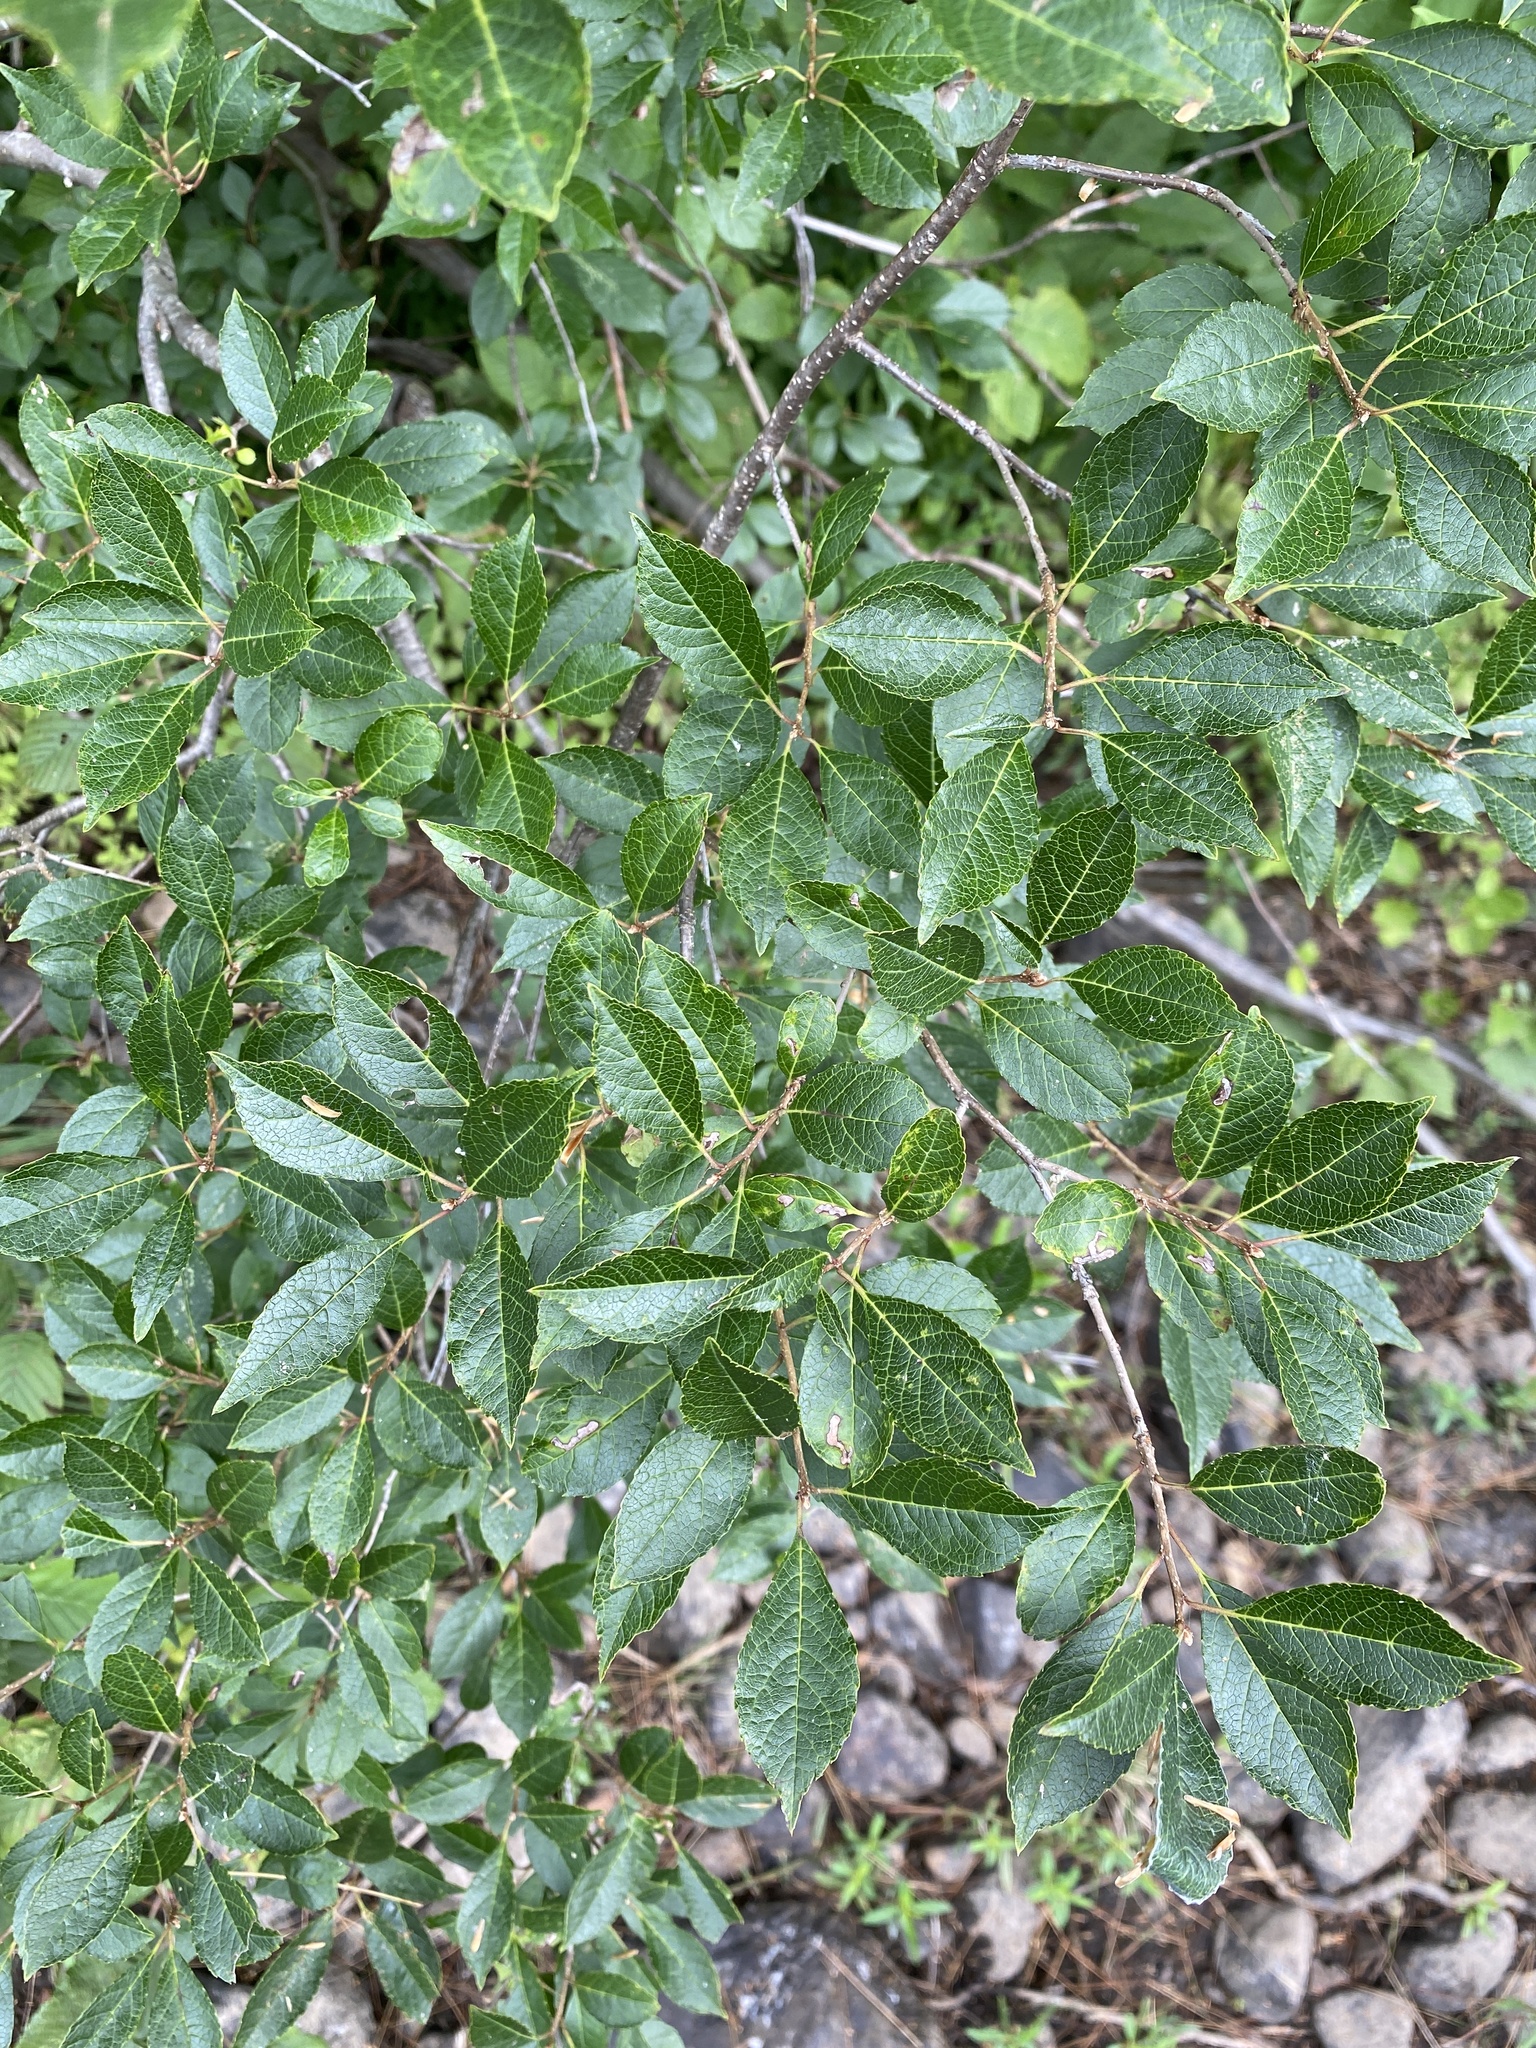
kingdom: Plantae
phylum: Tracheophyta
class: Magnoliopsida
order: Aquifoliales
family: Aquifoliaceae
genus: Ilex
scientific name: Ilex mucronata
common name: Catberry
